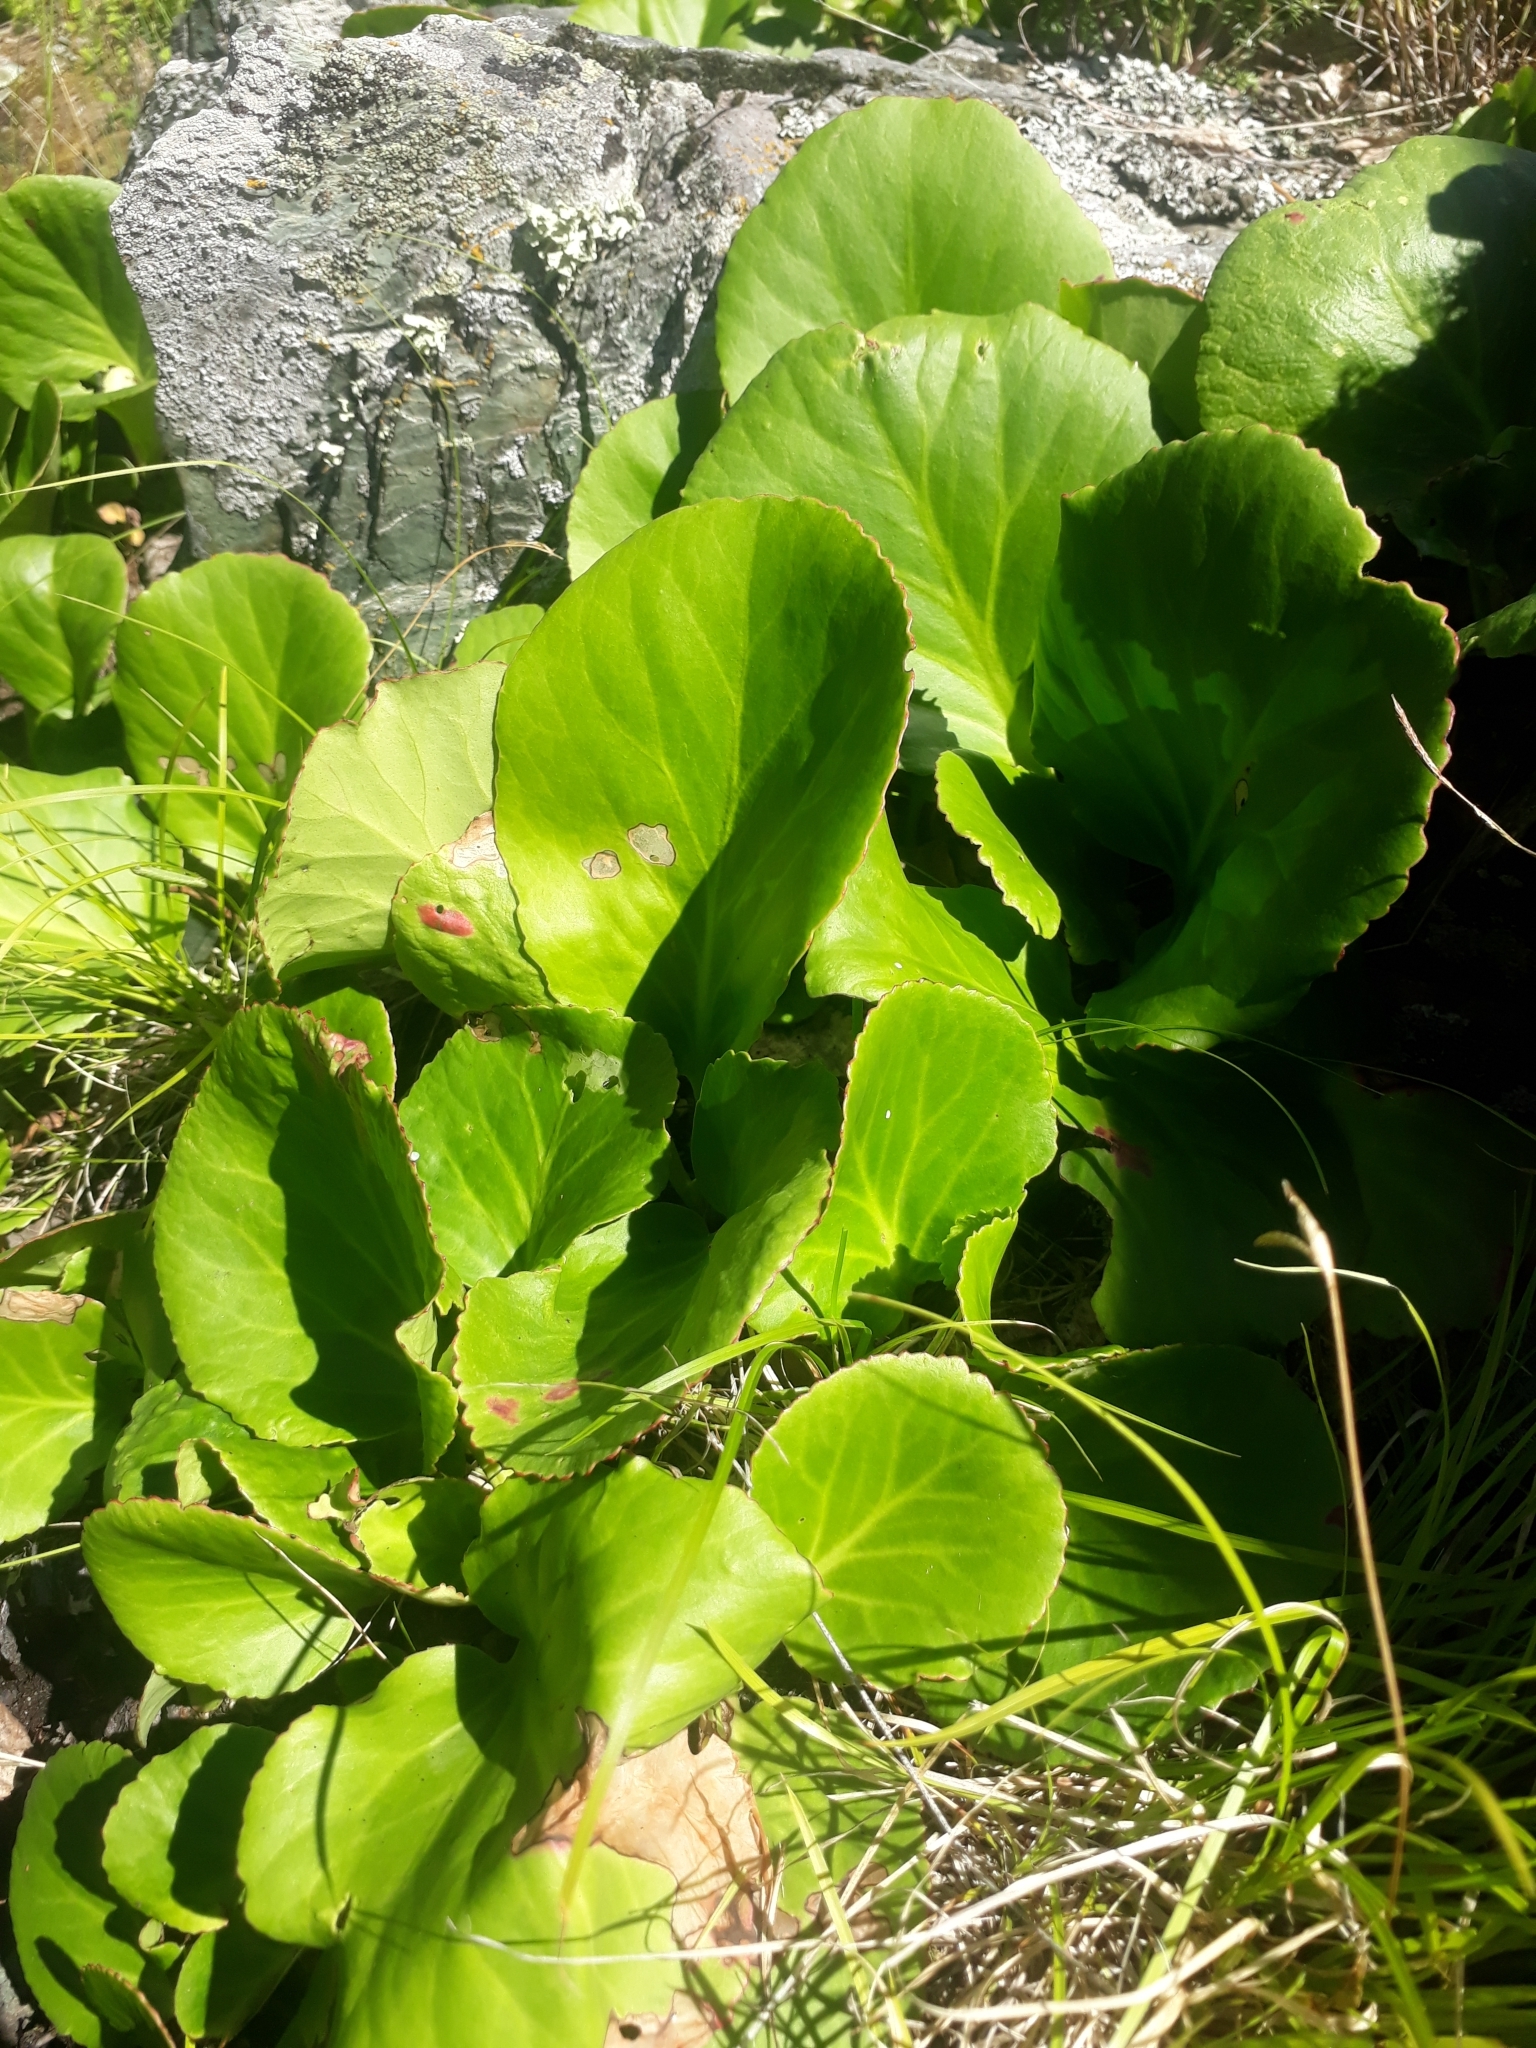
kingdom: Plantae
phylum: Tracheophyta
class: Magnoliopsida
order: Saxifragales
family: Saxifragaceae
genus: Bergenia
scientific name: Bergenia crassifolia
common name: Elephant-ears
